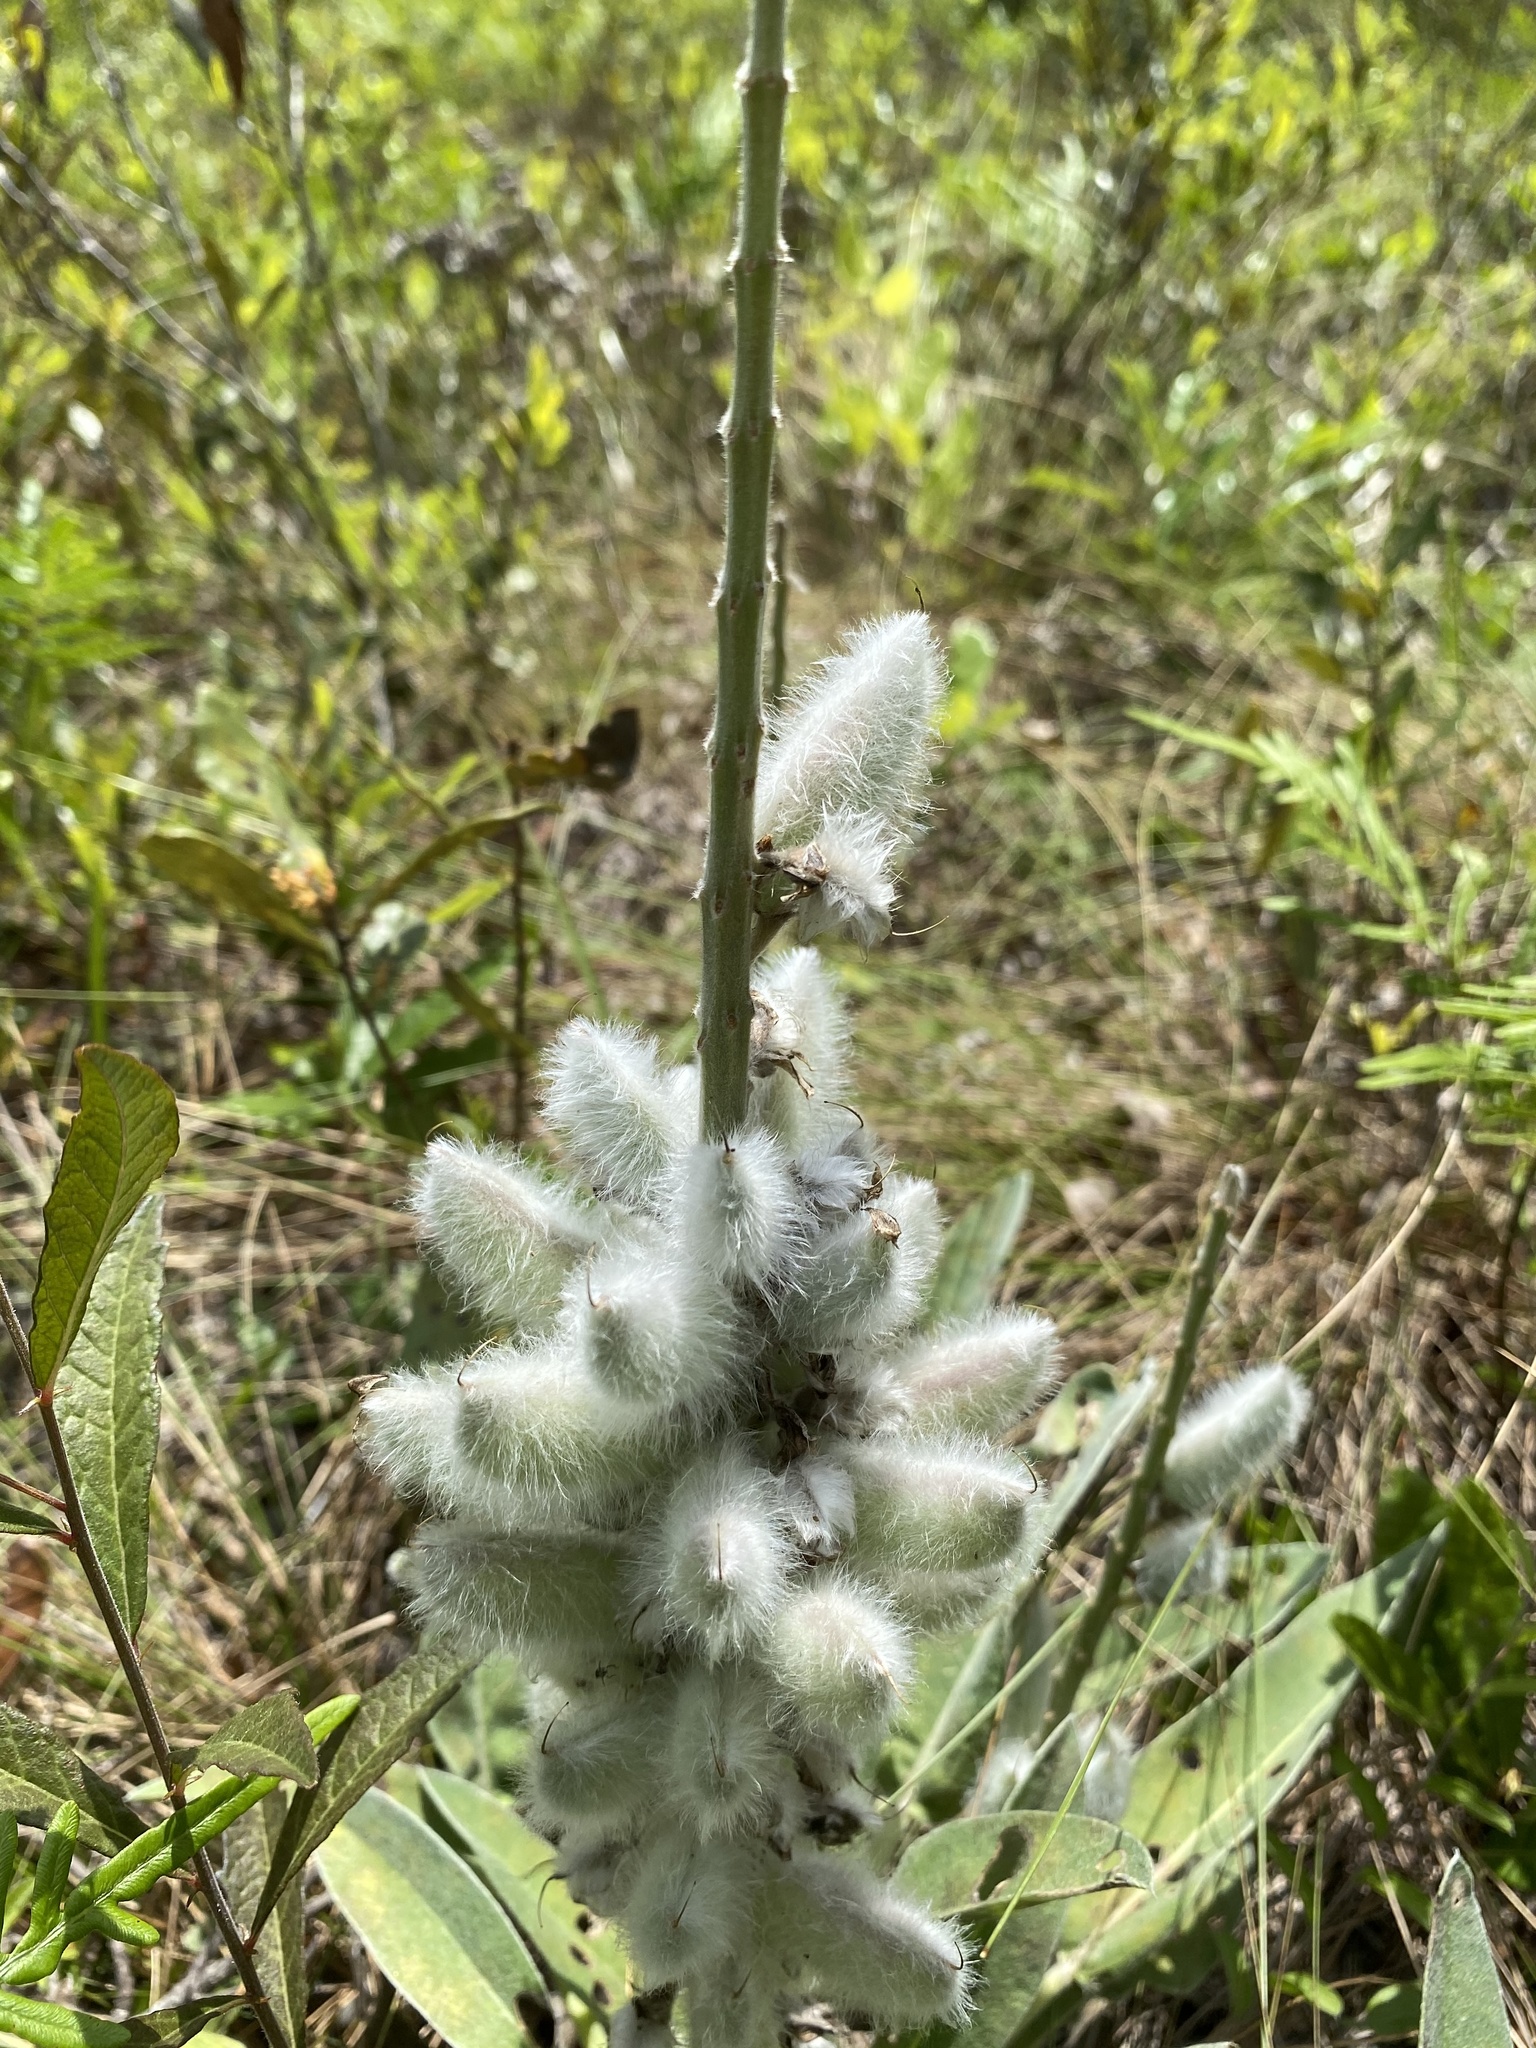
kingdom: Plantae
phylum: Tracheophyta
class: Magnoliopsida
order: Fabales
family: Fabaceae
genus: Lupinus
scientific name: Lupinus villosus
